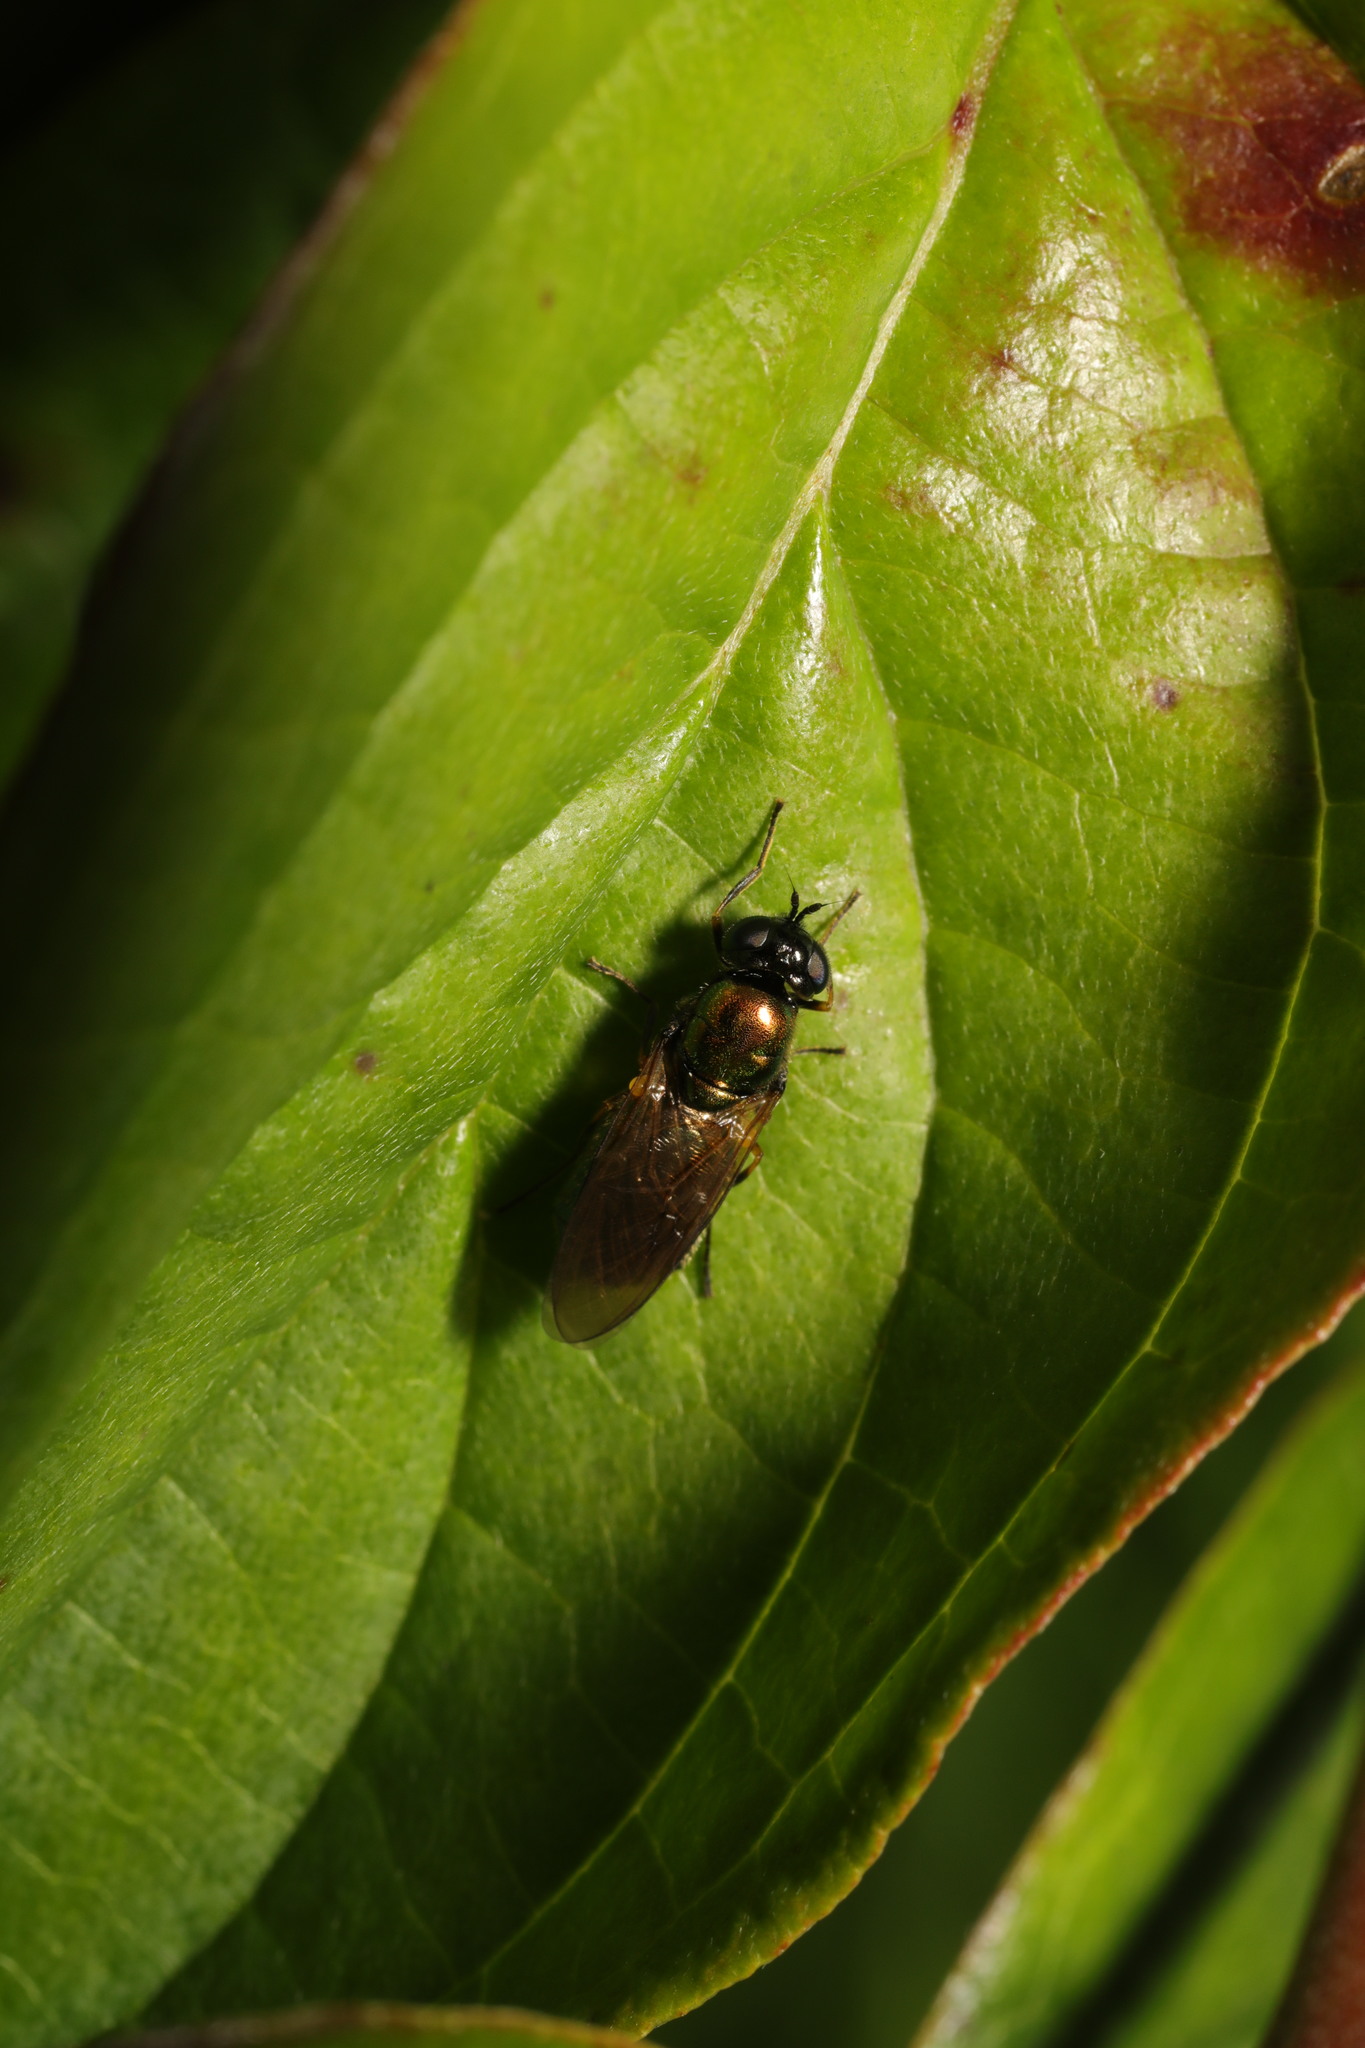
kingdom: Animalia
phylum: Arthropoda
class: Insecta
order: Diptera
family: Stratiomyidae
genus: Chloromyia
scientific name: Chloromyia formosa
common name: Soldier fly
